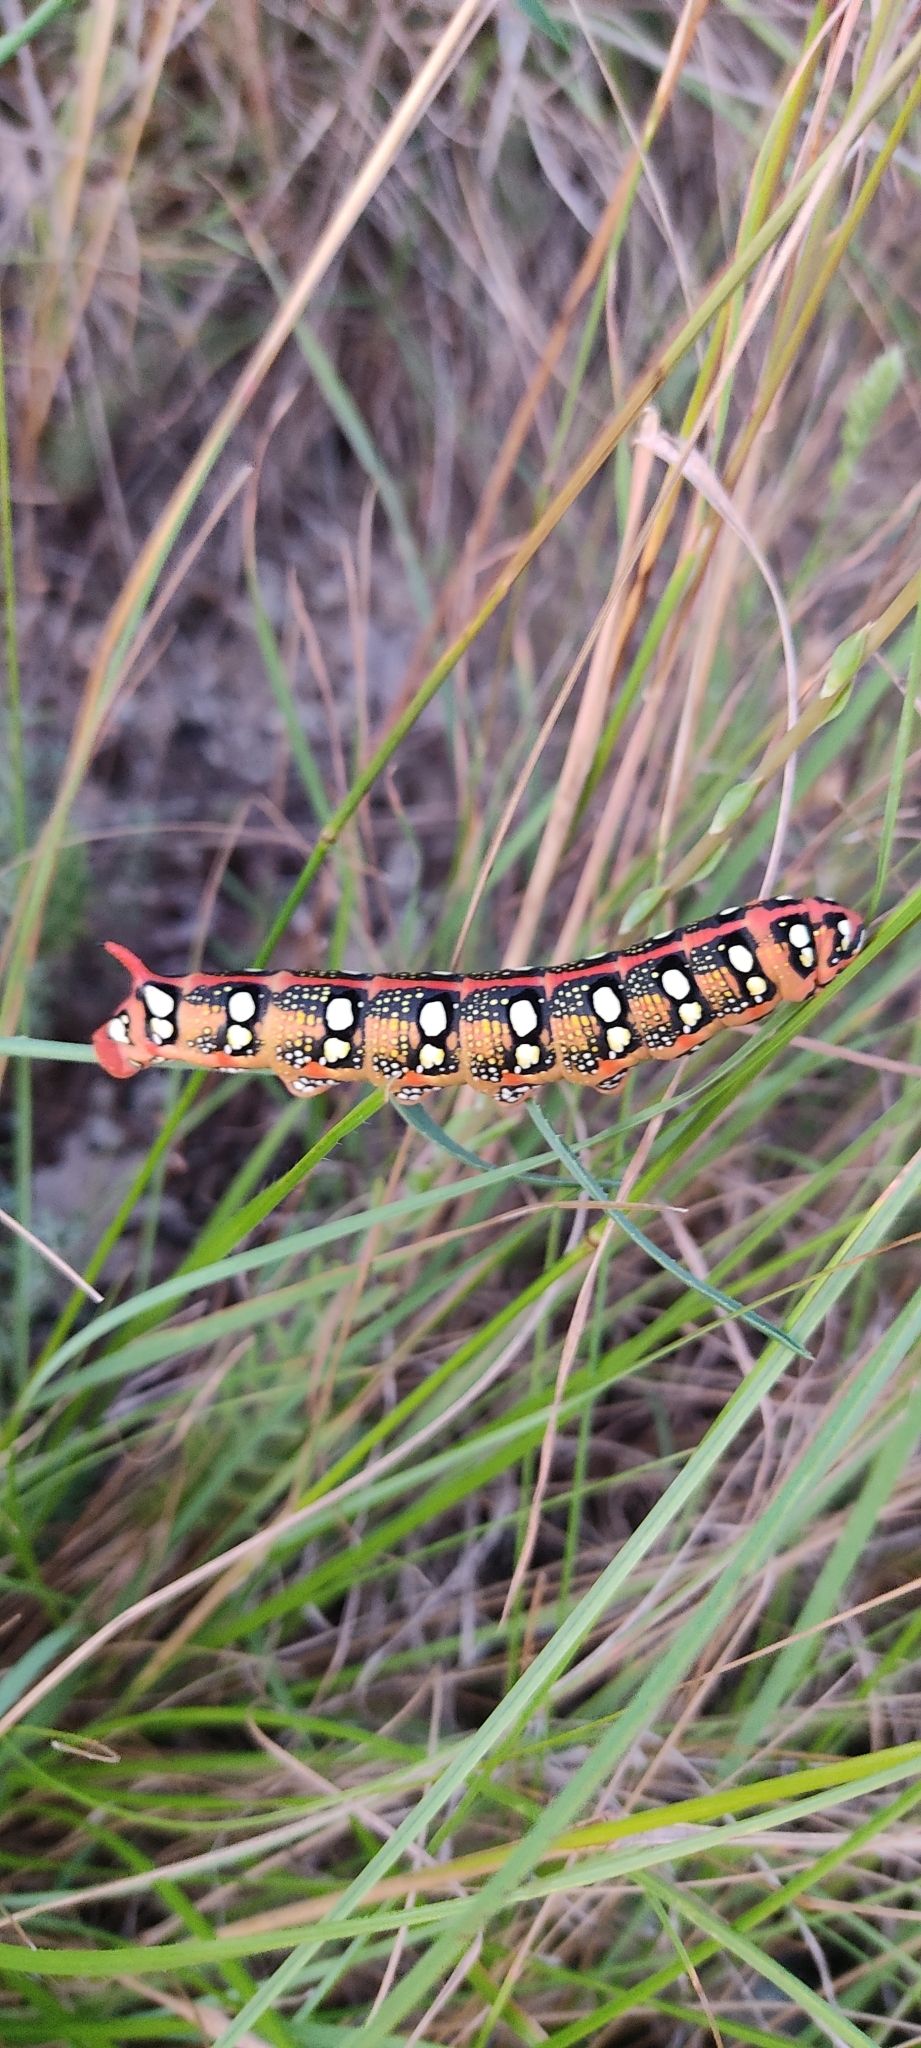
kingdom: Animalia
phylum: Arthropoda
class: Insecta
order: Lepidoptera
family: Sphingidae
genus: Hyles
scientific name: Hyles euphorbiae
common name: Spurge hawk-moth
